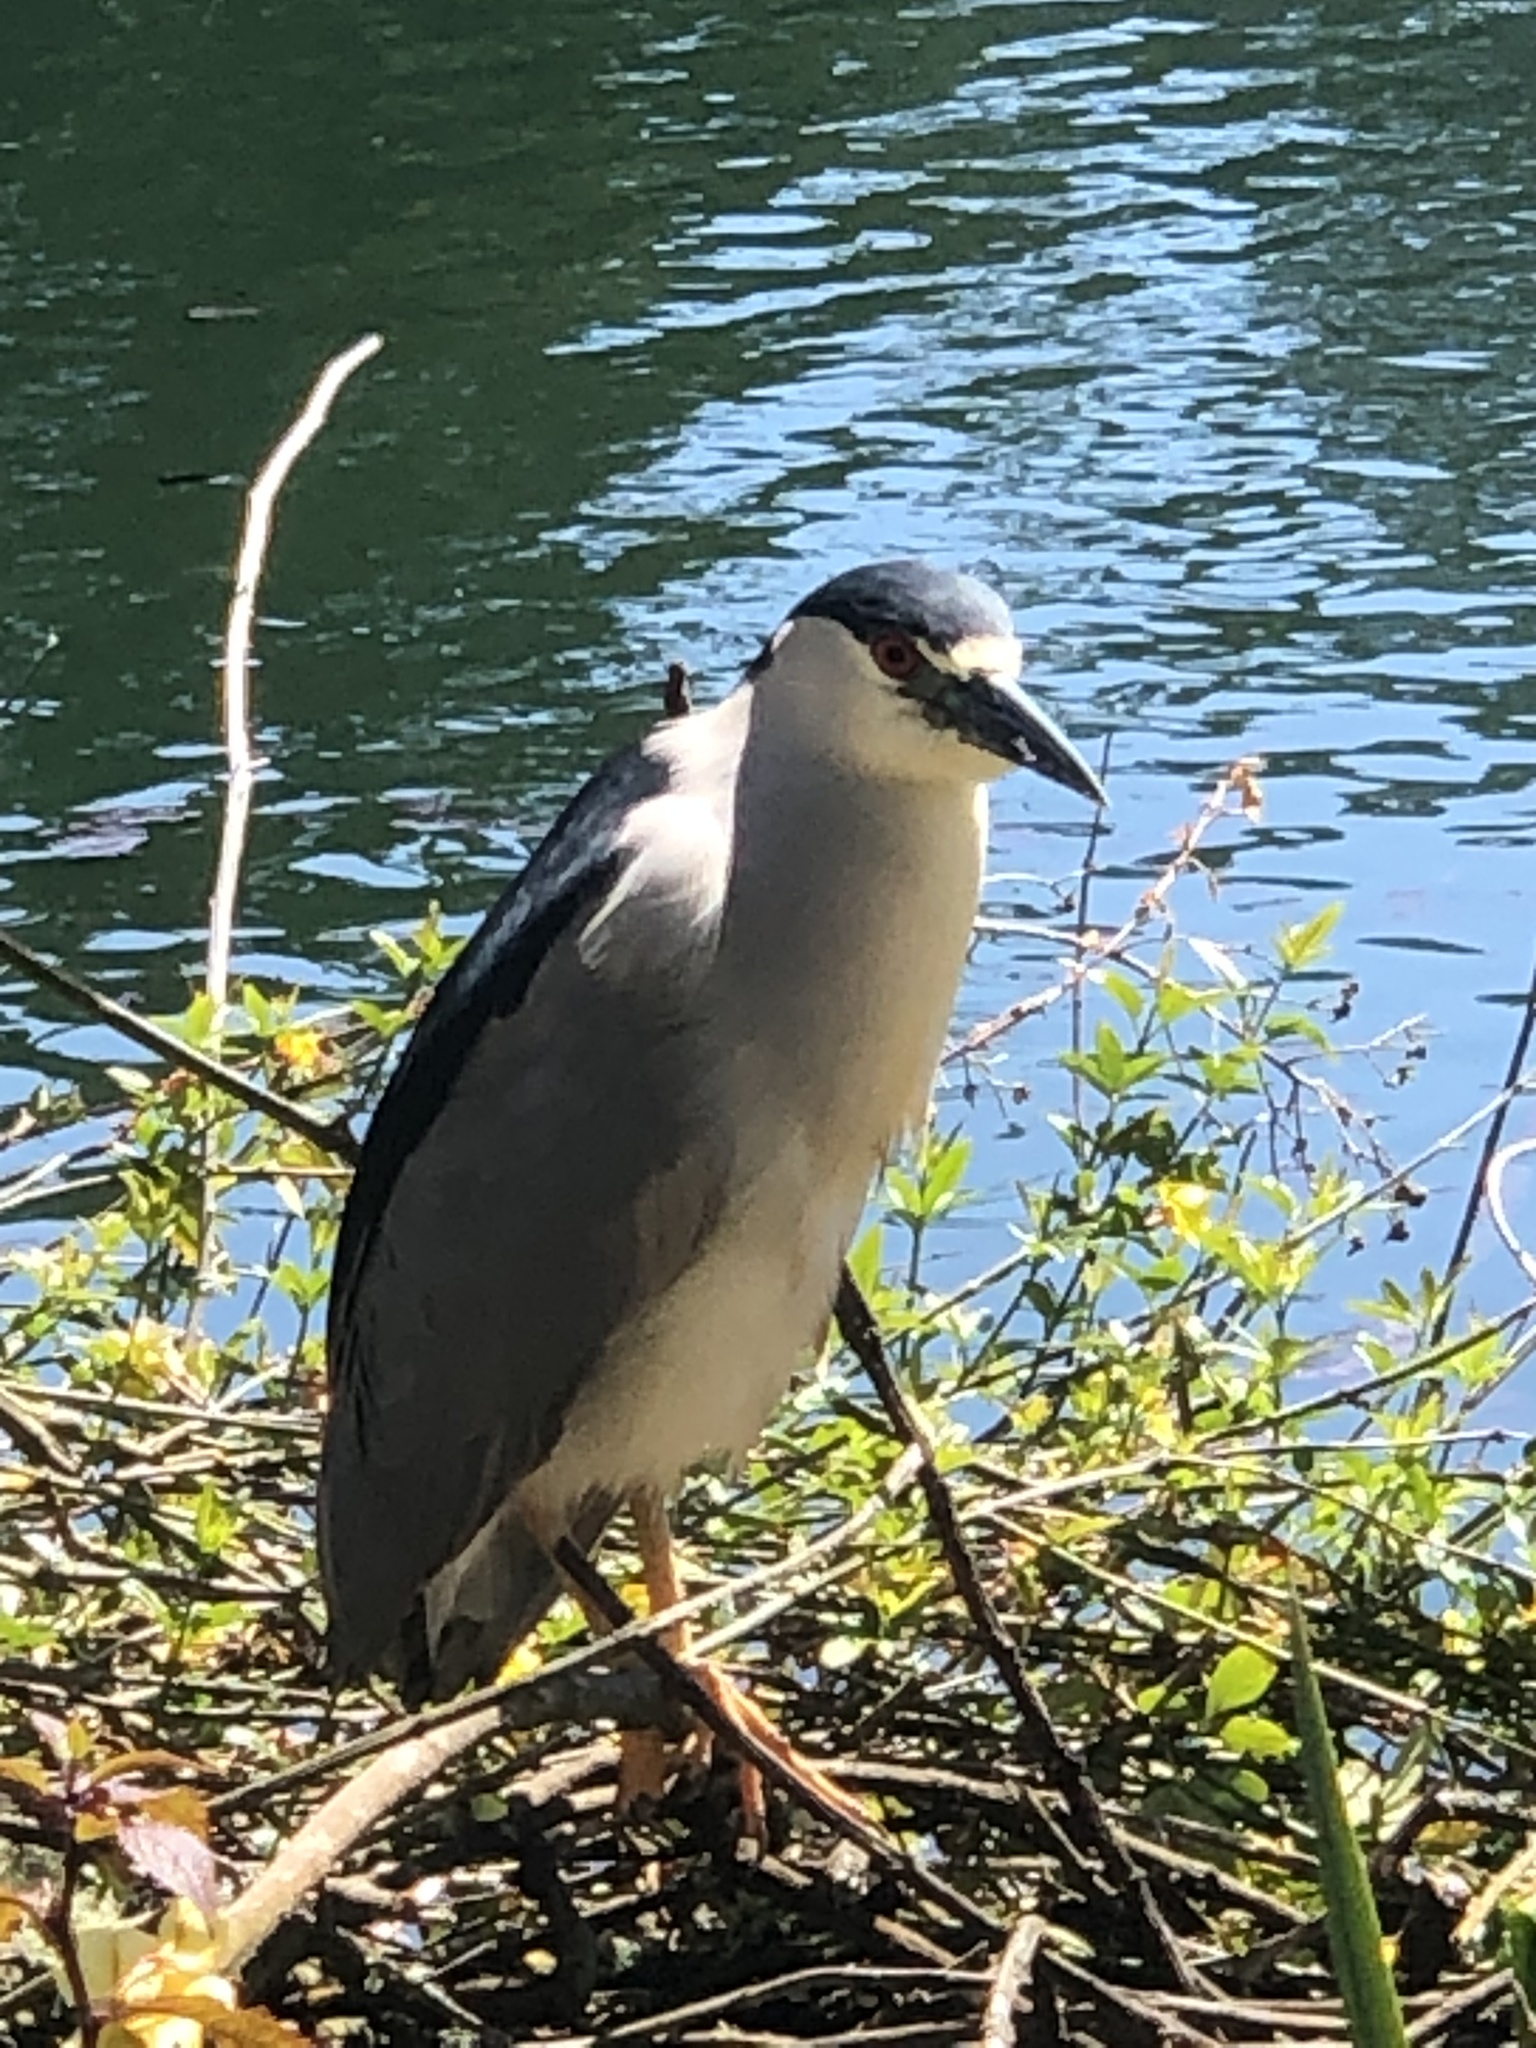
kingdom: Animalia
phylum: Chordata
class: Aves
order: Pelecaniformes
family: Ardeidae
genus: Nycticorax
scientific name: Nycticorax nycticorax
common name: Black-crowned night heron
